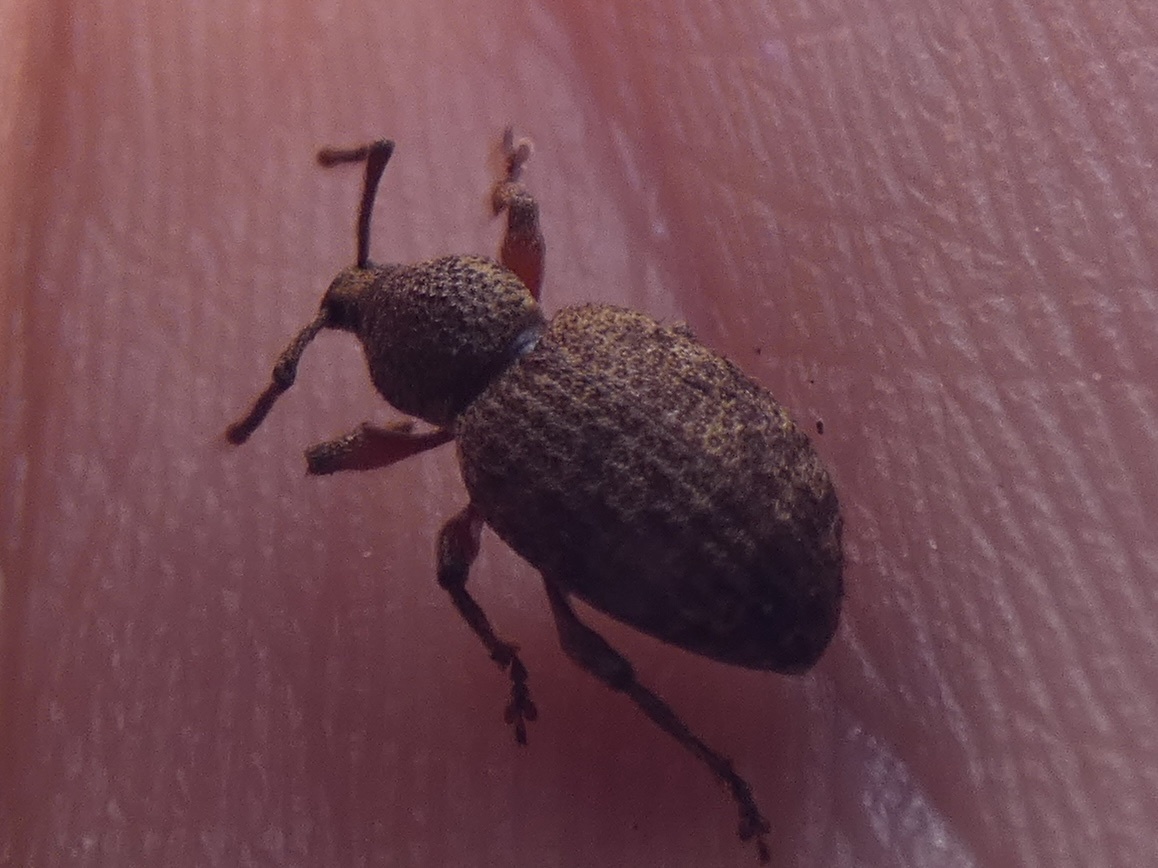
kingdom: Animalia
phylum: Arthropoda
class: Insecta
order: Coleoptera
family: Curculionidae
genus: Otiorhynchus
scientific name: Otiorhynchus singularis
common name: Clay-coloured weevil
